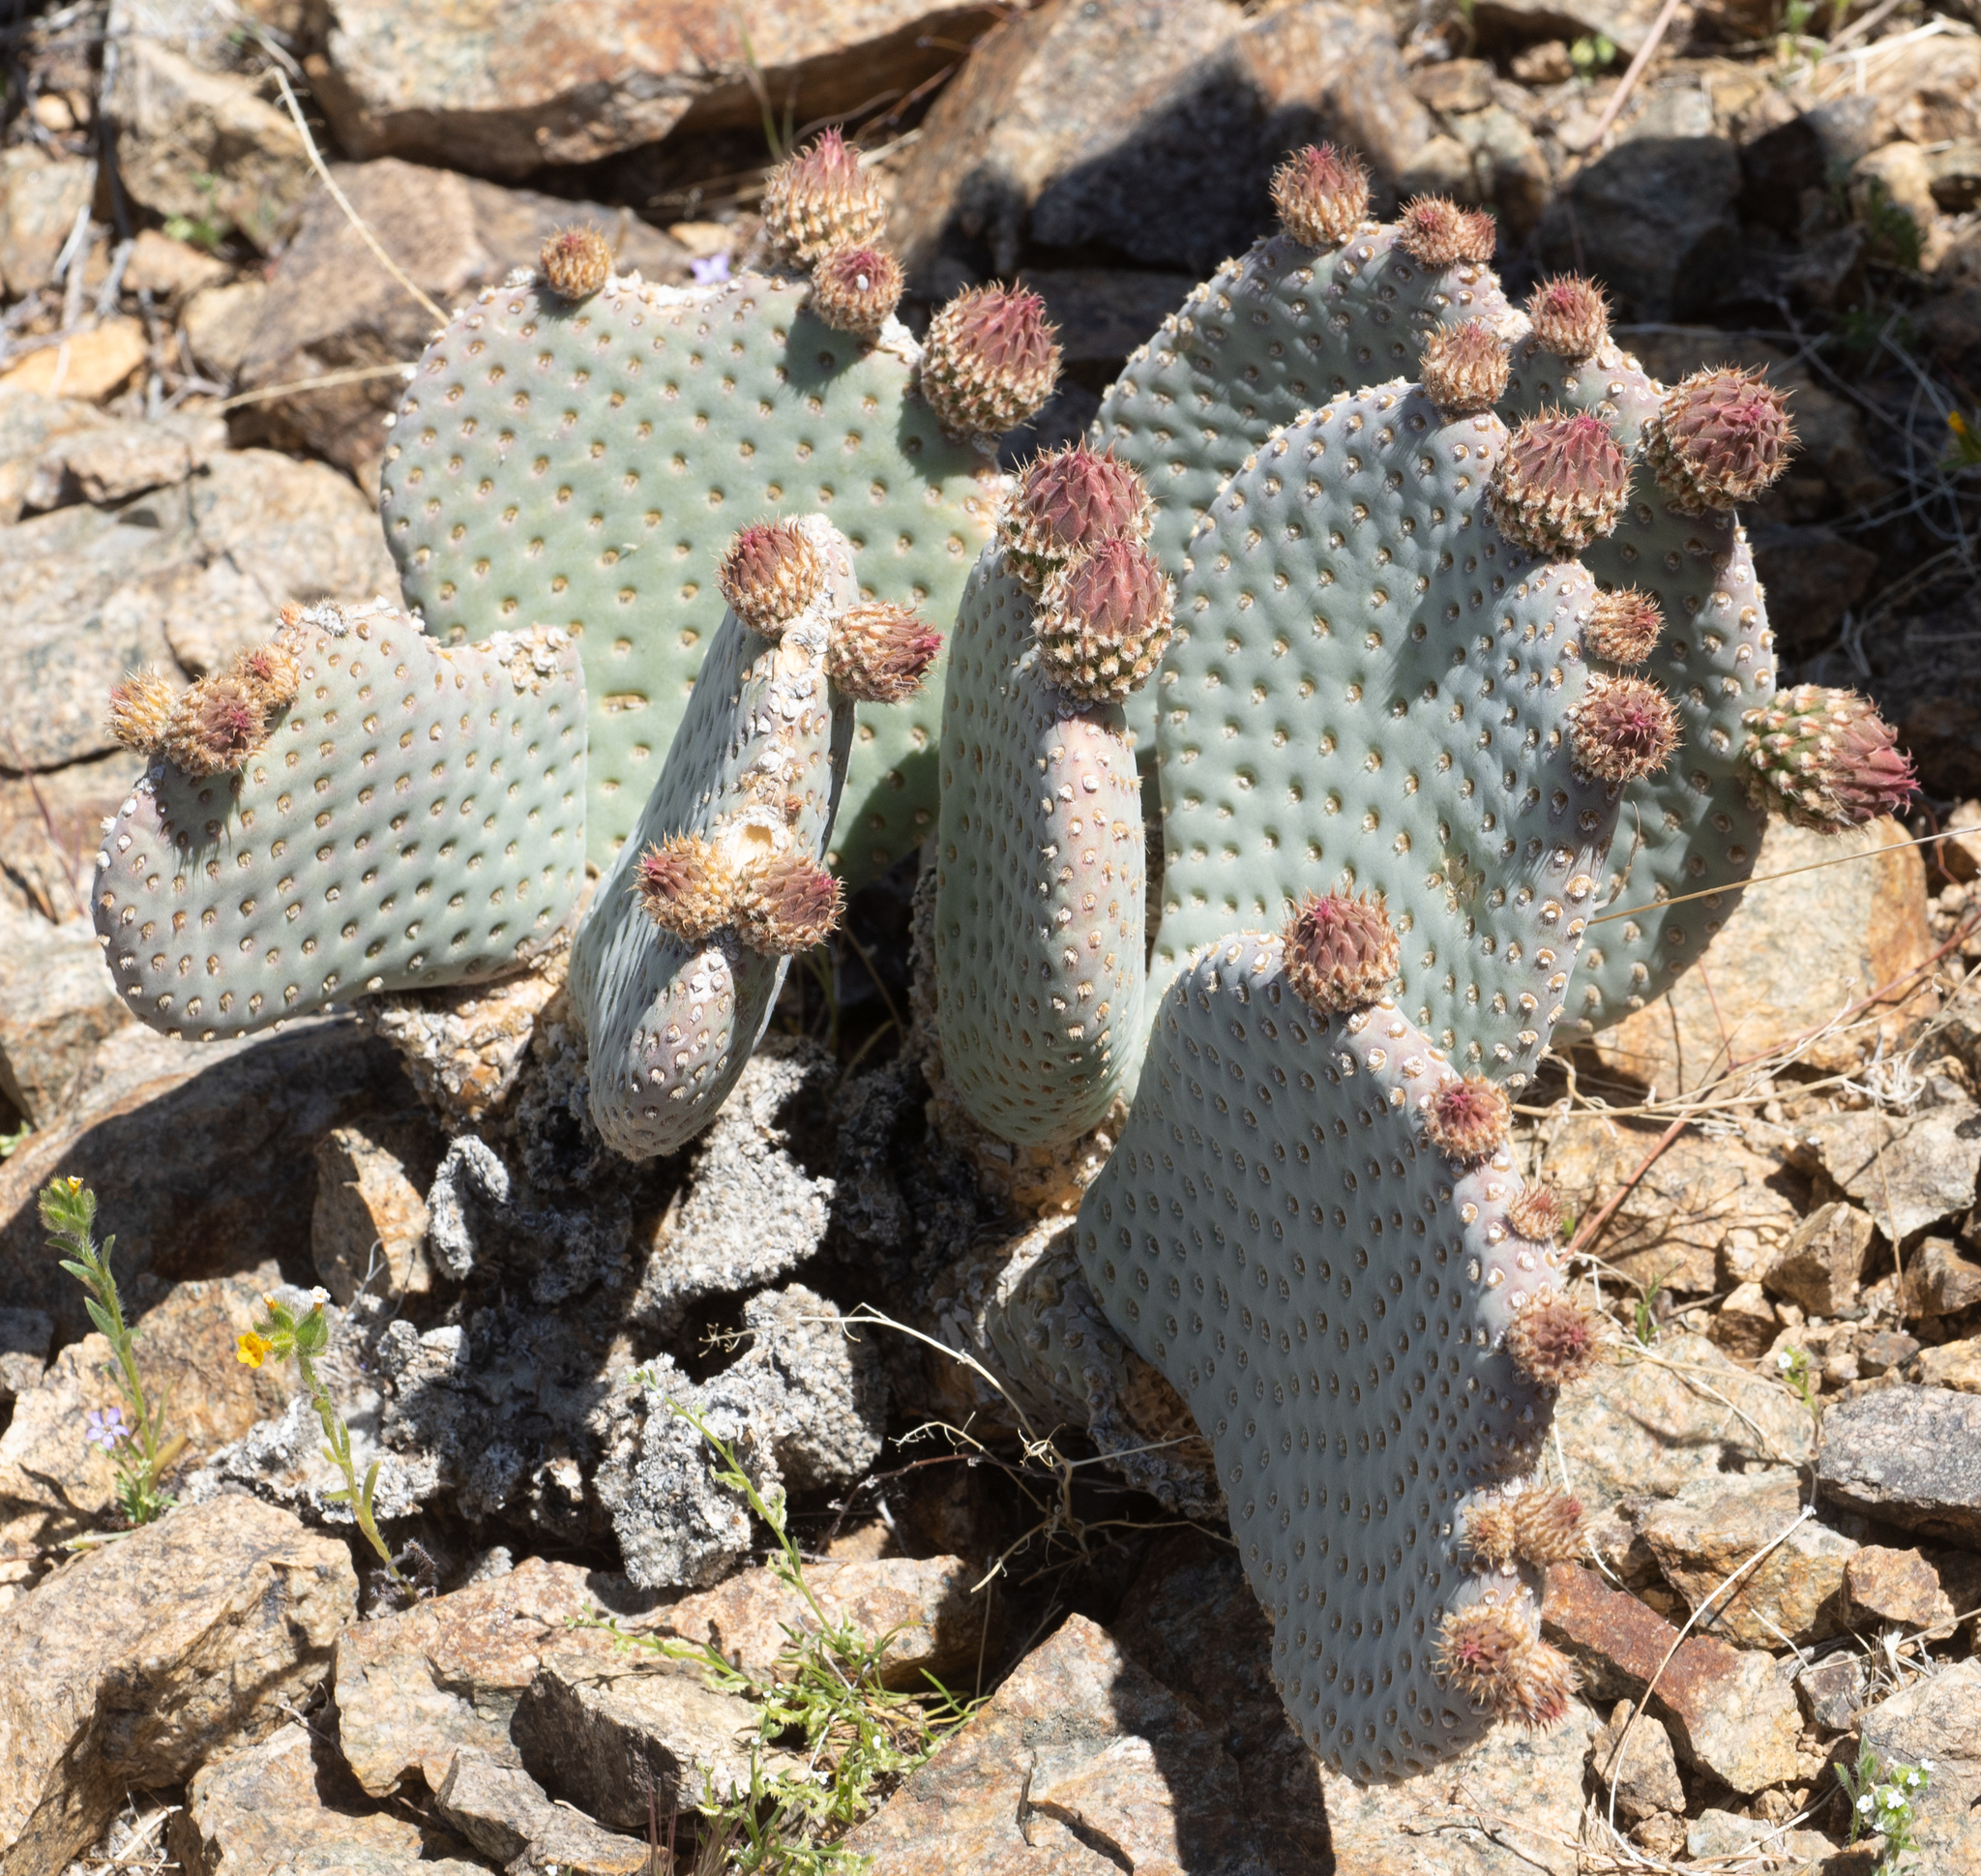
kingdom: Plantae
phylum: Tracheophyta
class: Magnoliopsida
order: Caryophyllales
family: Cactaceae
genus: Opuntia
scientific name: Opuntia basilaris
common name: Beavertail prickly-pear
